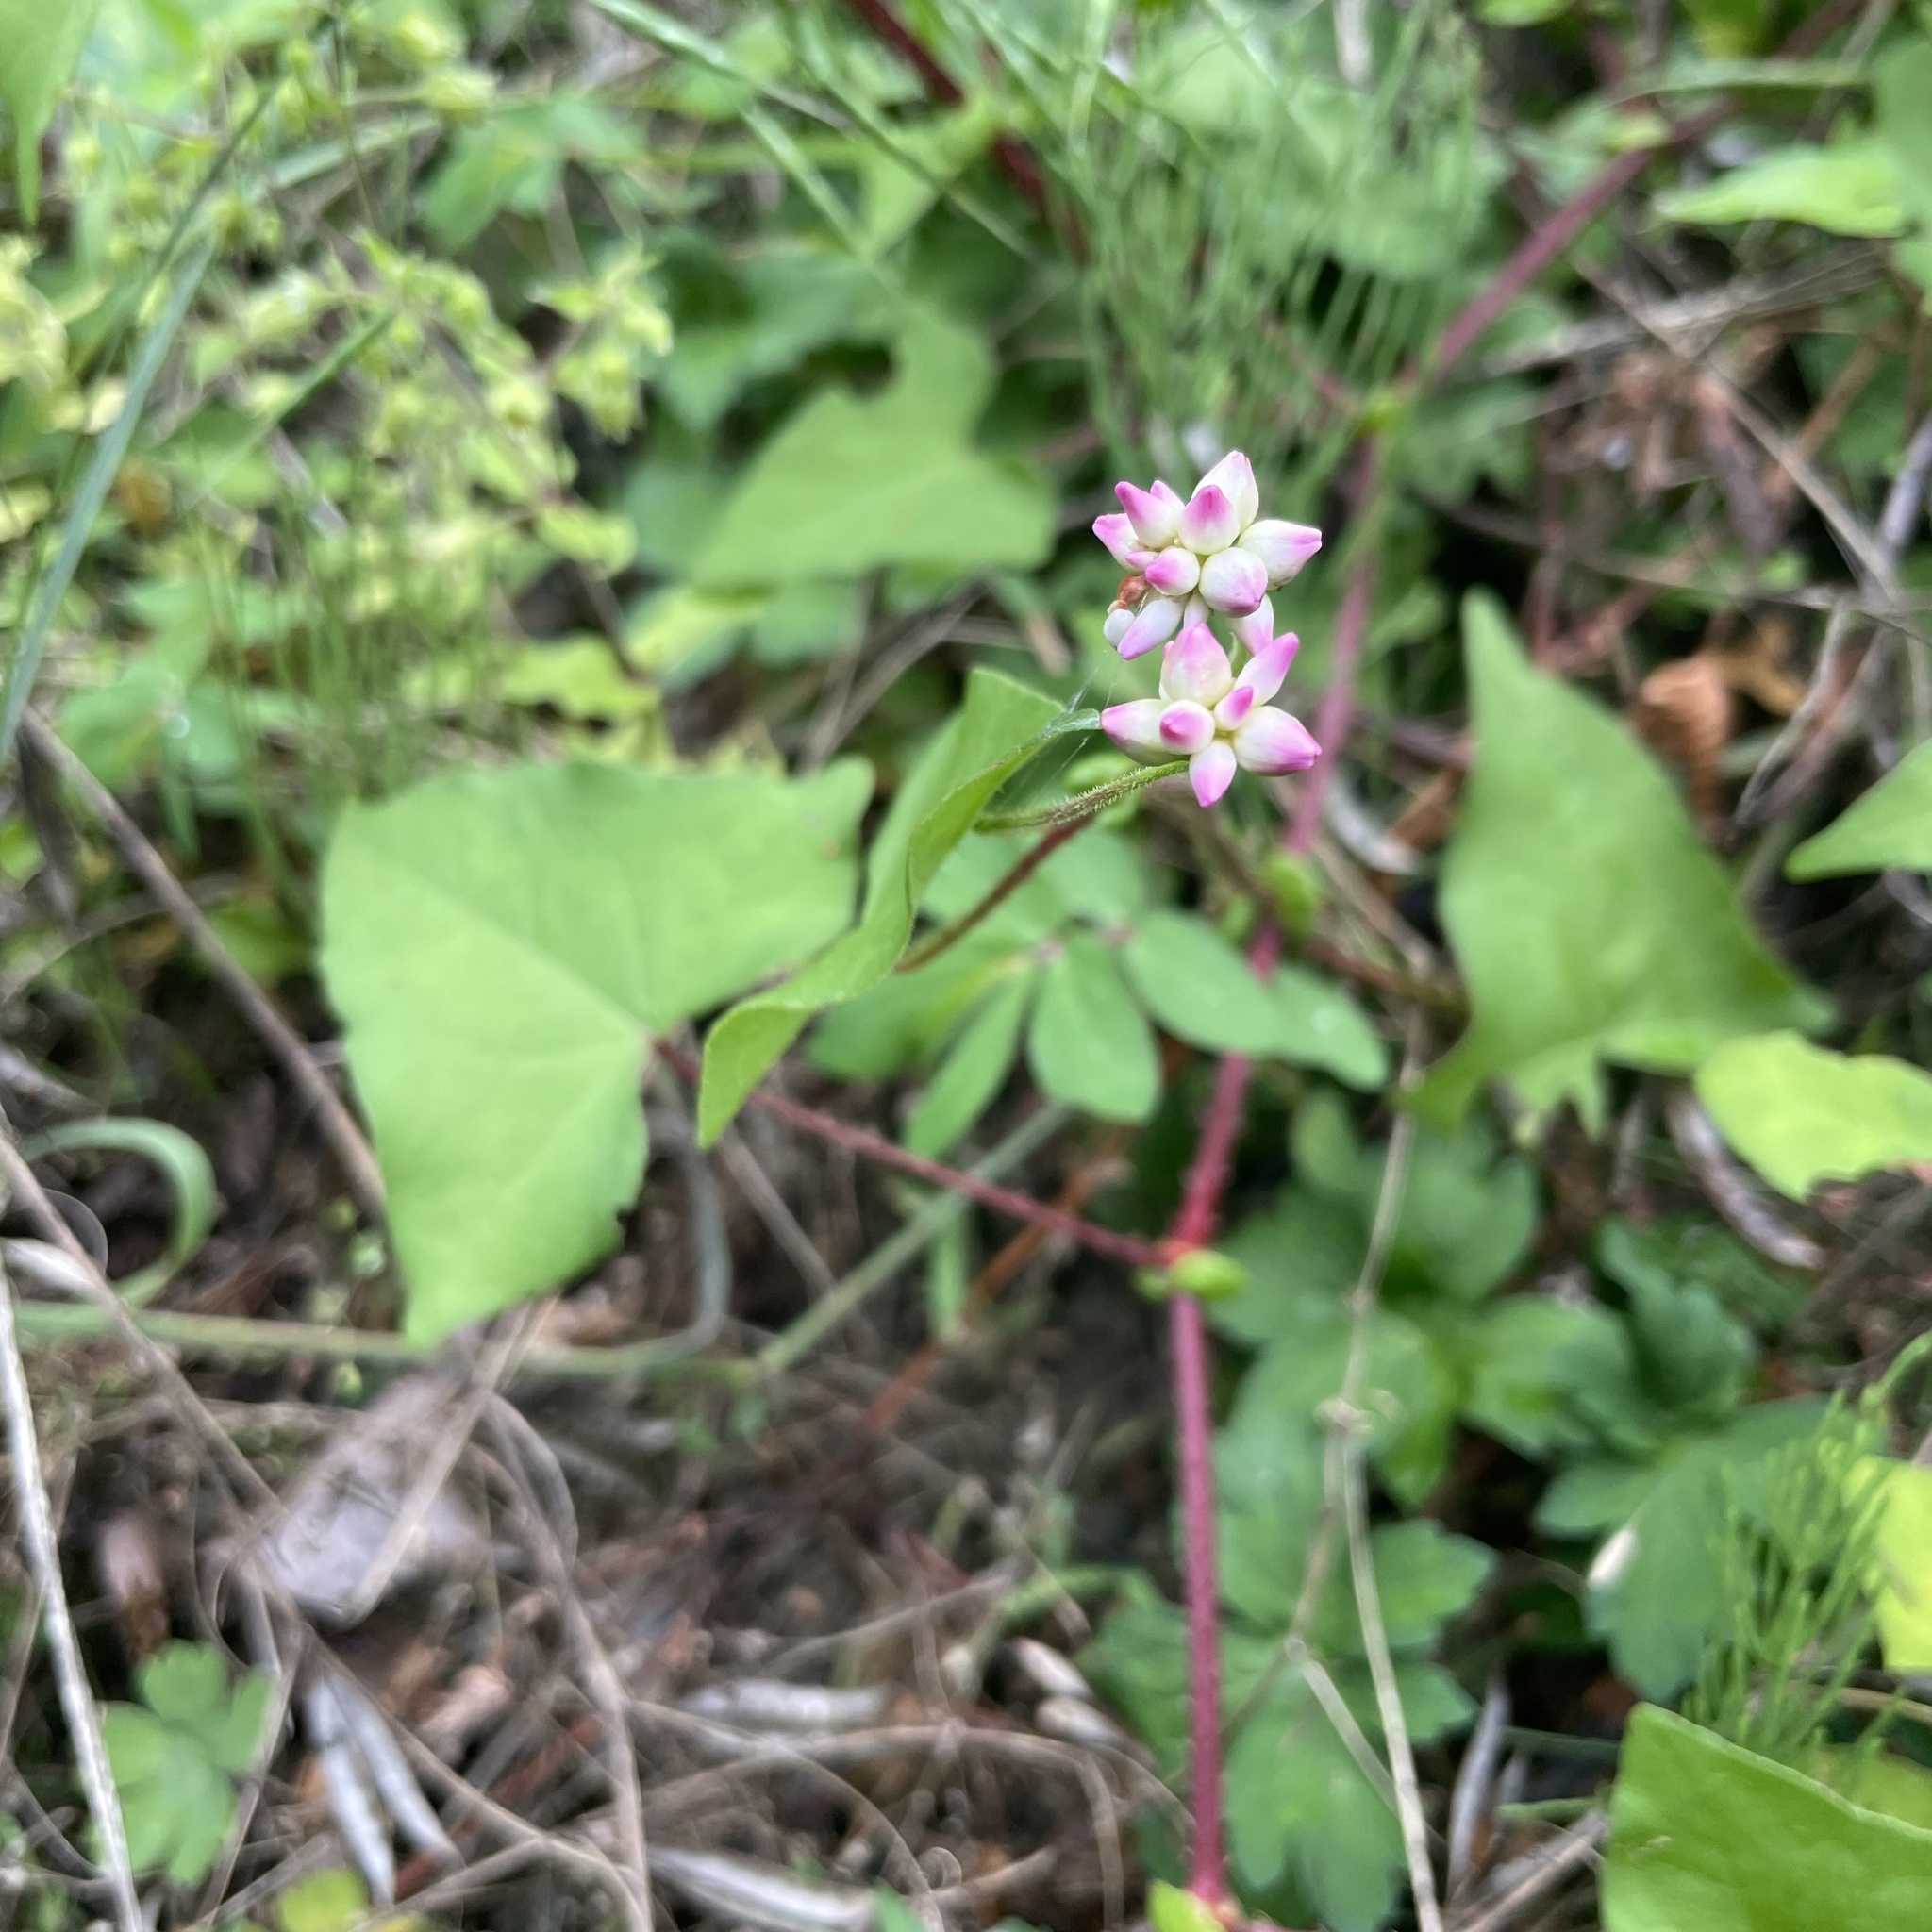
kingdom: Plantae
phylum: Tracheophyta
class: Magnoliopsida
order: Caryophyllales
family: Polygonaceae
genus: Persicaria
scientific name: Persicaria senticosa
